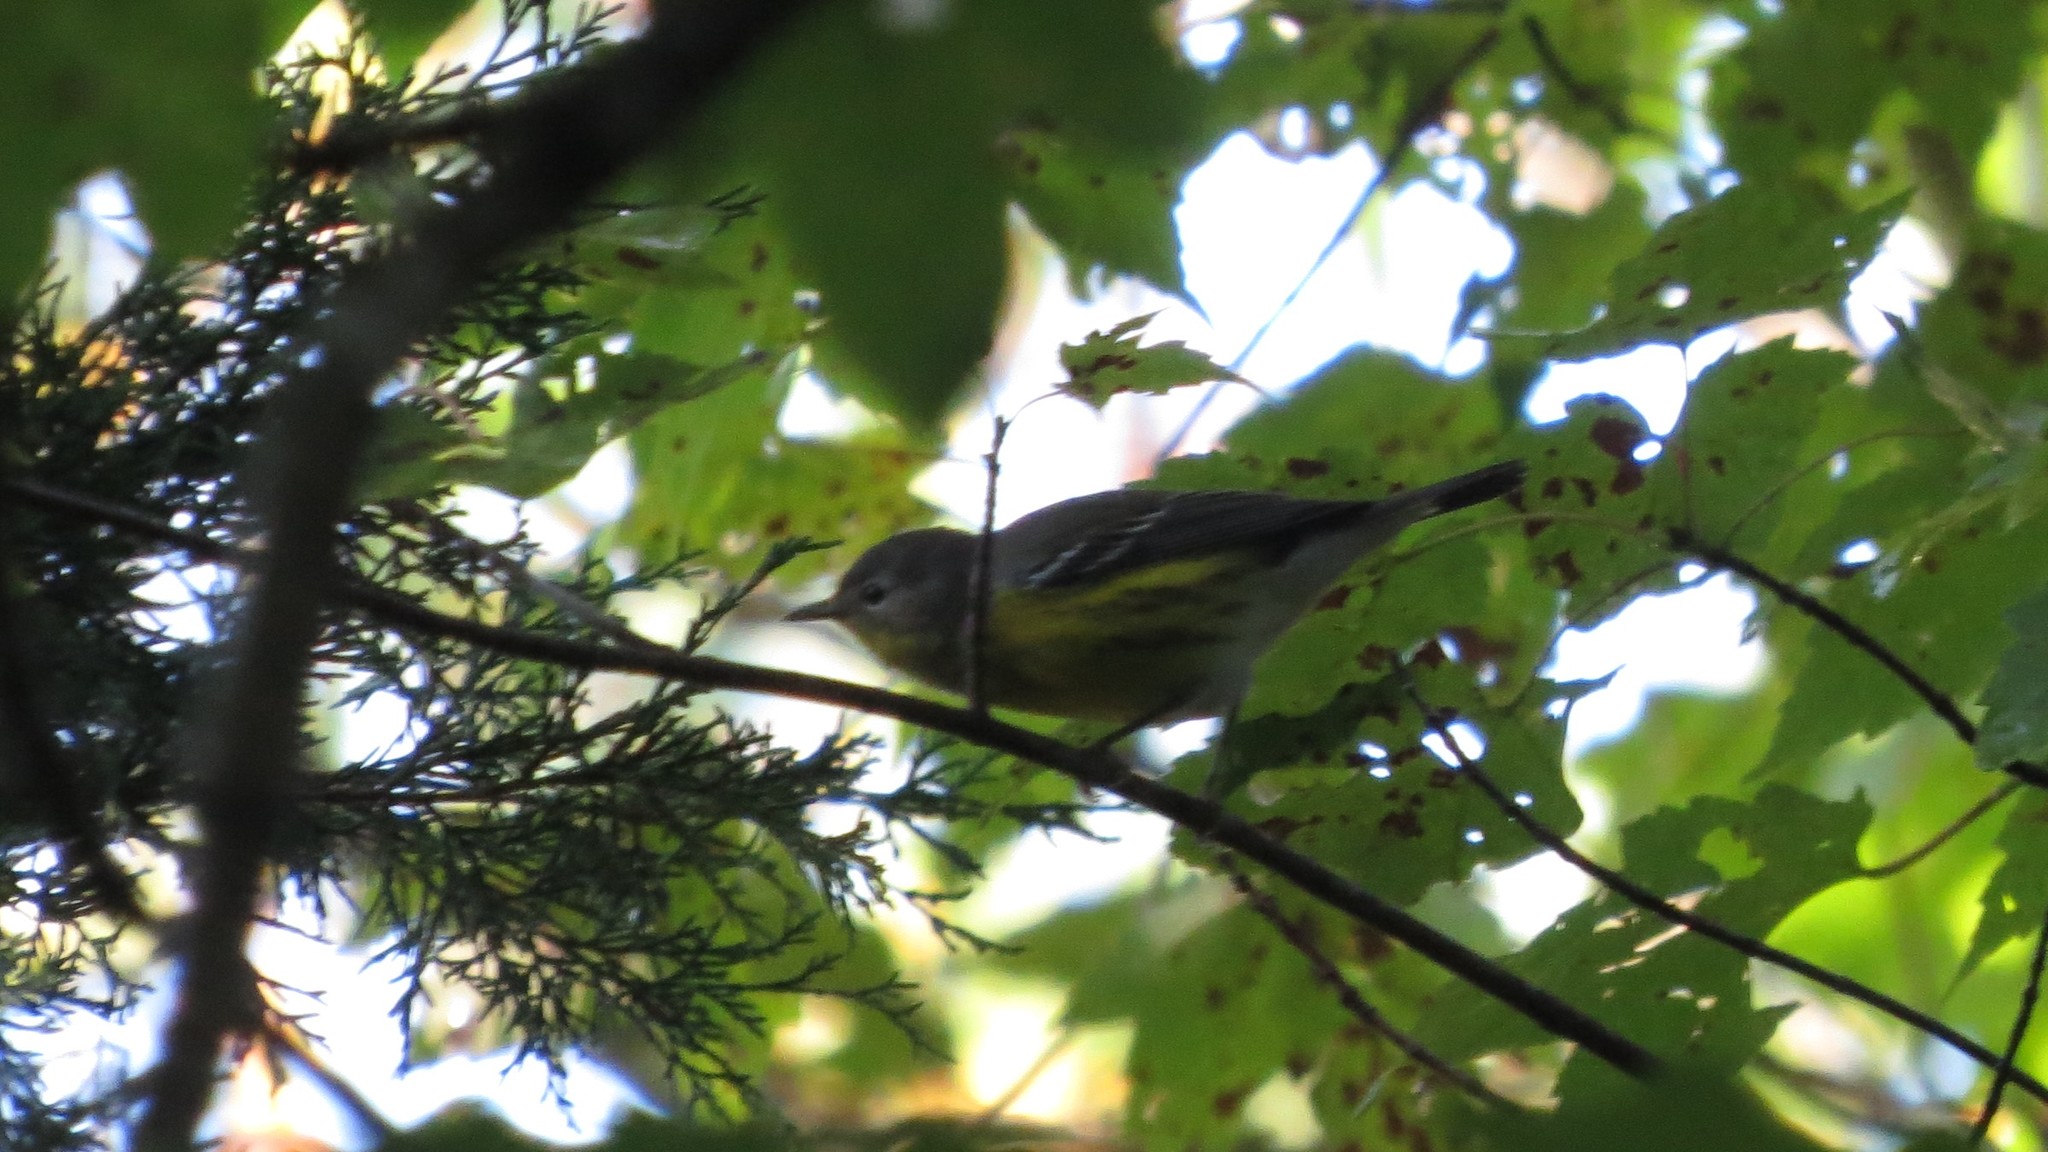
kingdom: Animalia
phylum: Chordata
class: Aves
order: Passeriformes
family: Parulidae
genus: Setophaga
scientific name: Setophaga magnolia
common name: Magnolia warbler
